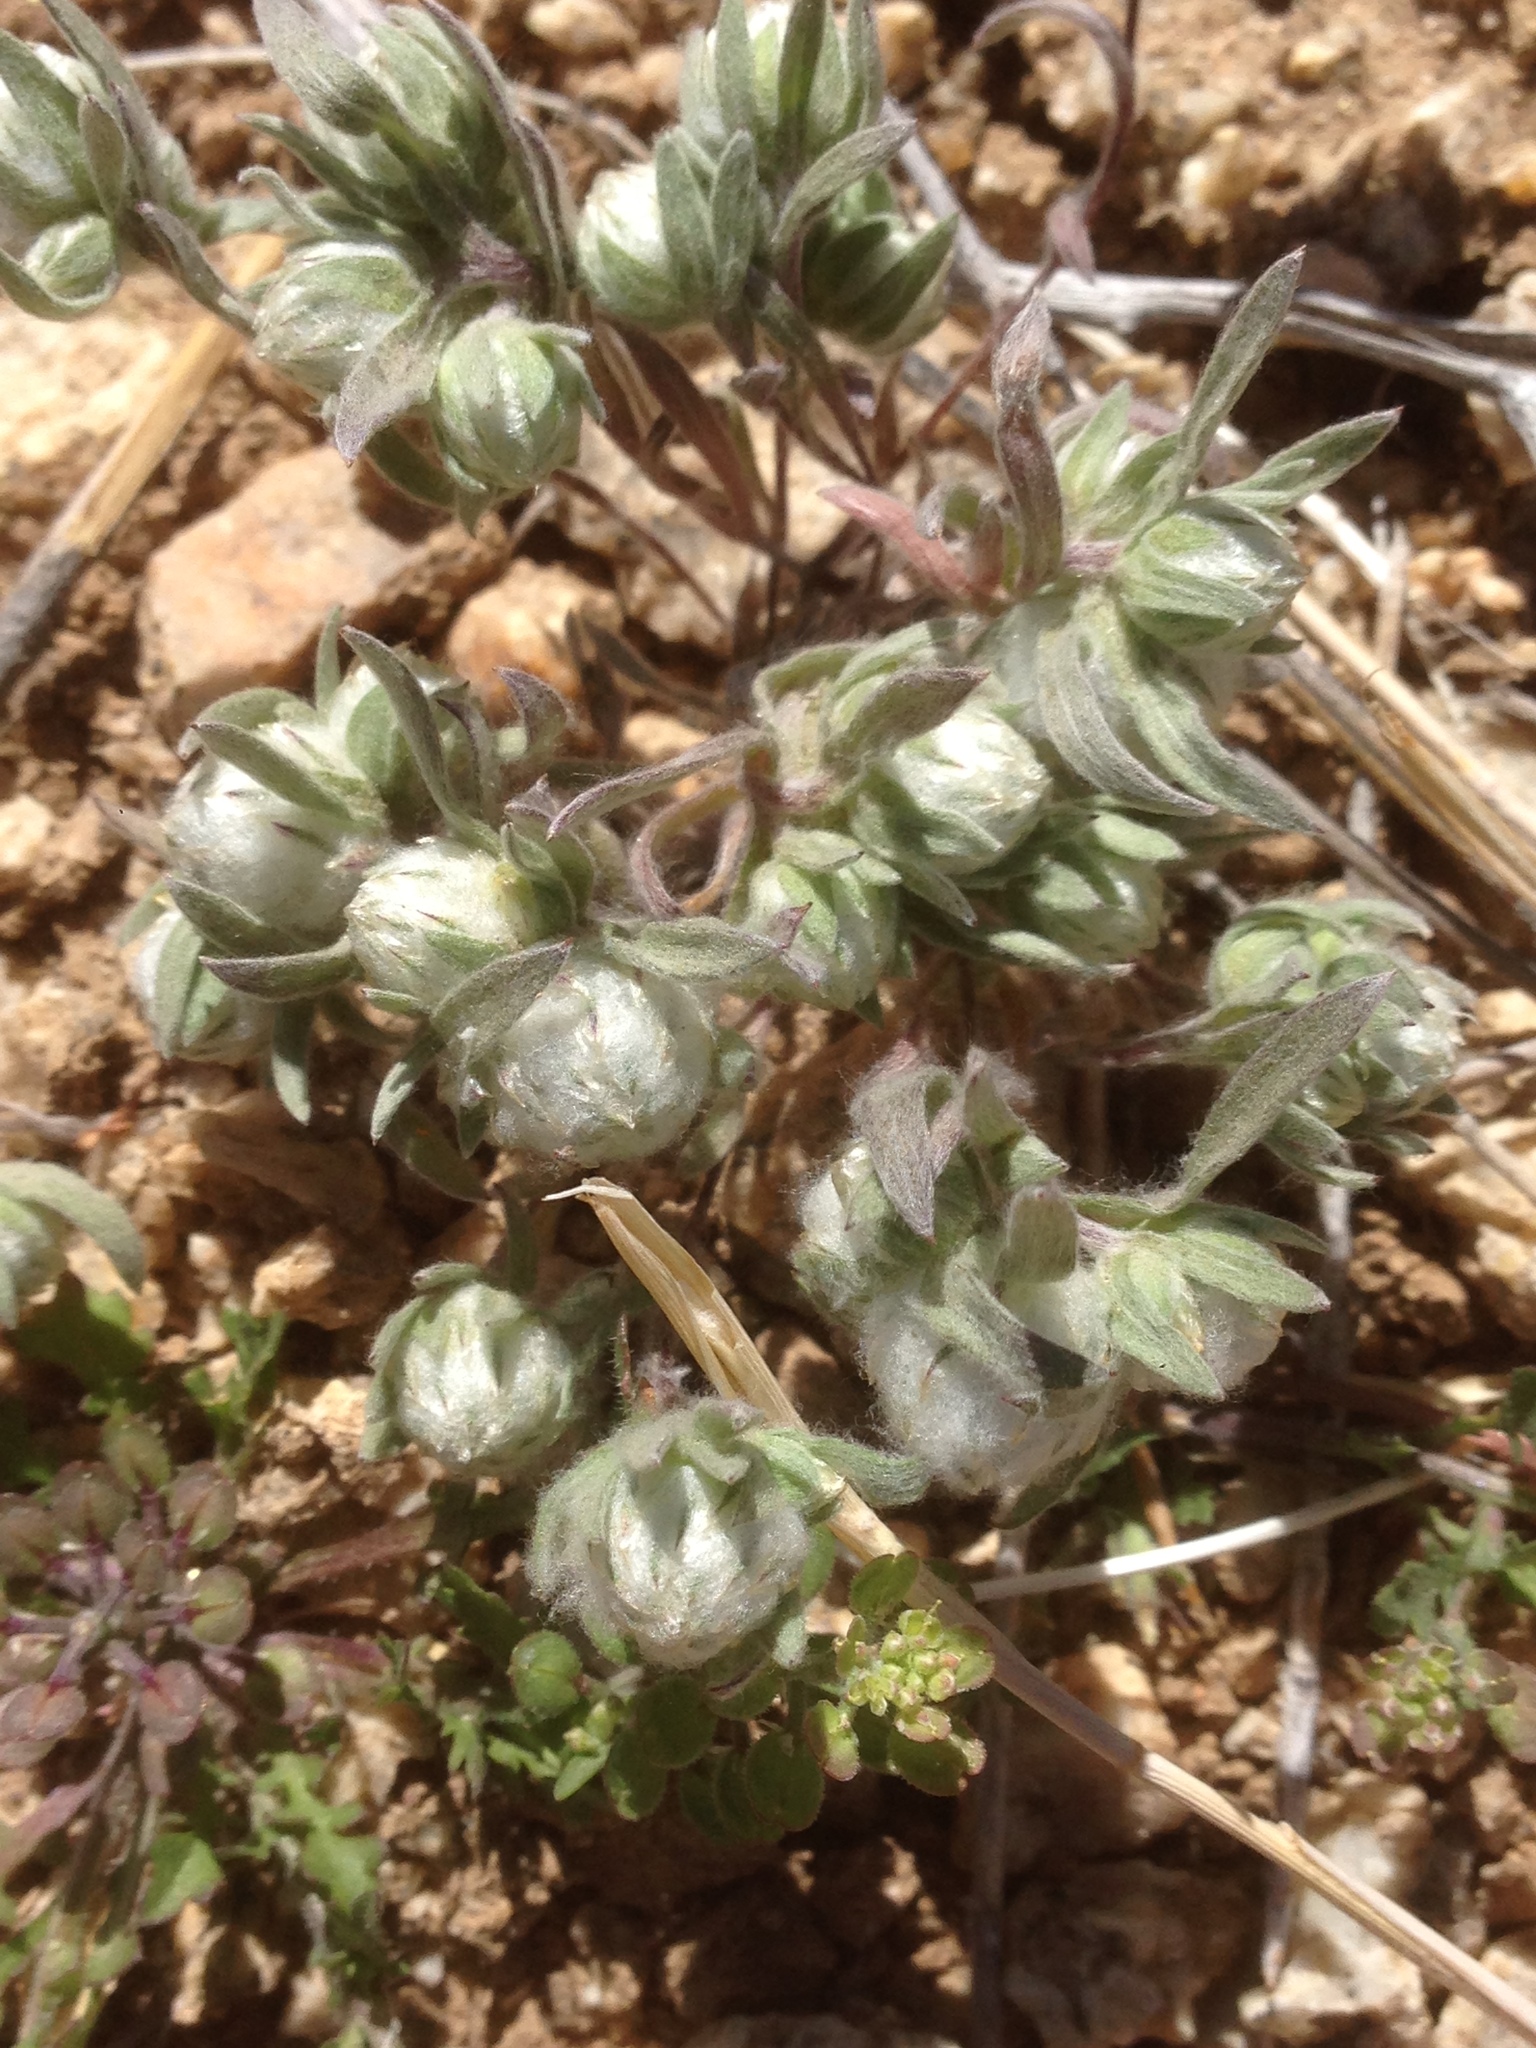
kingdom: Plantae
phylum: Tracheophyta
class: Magnoliopsida
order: Asterales
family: Asteraceae
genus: Stylocline
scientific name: Stylocline micropoides
